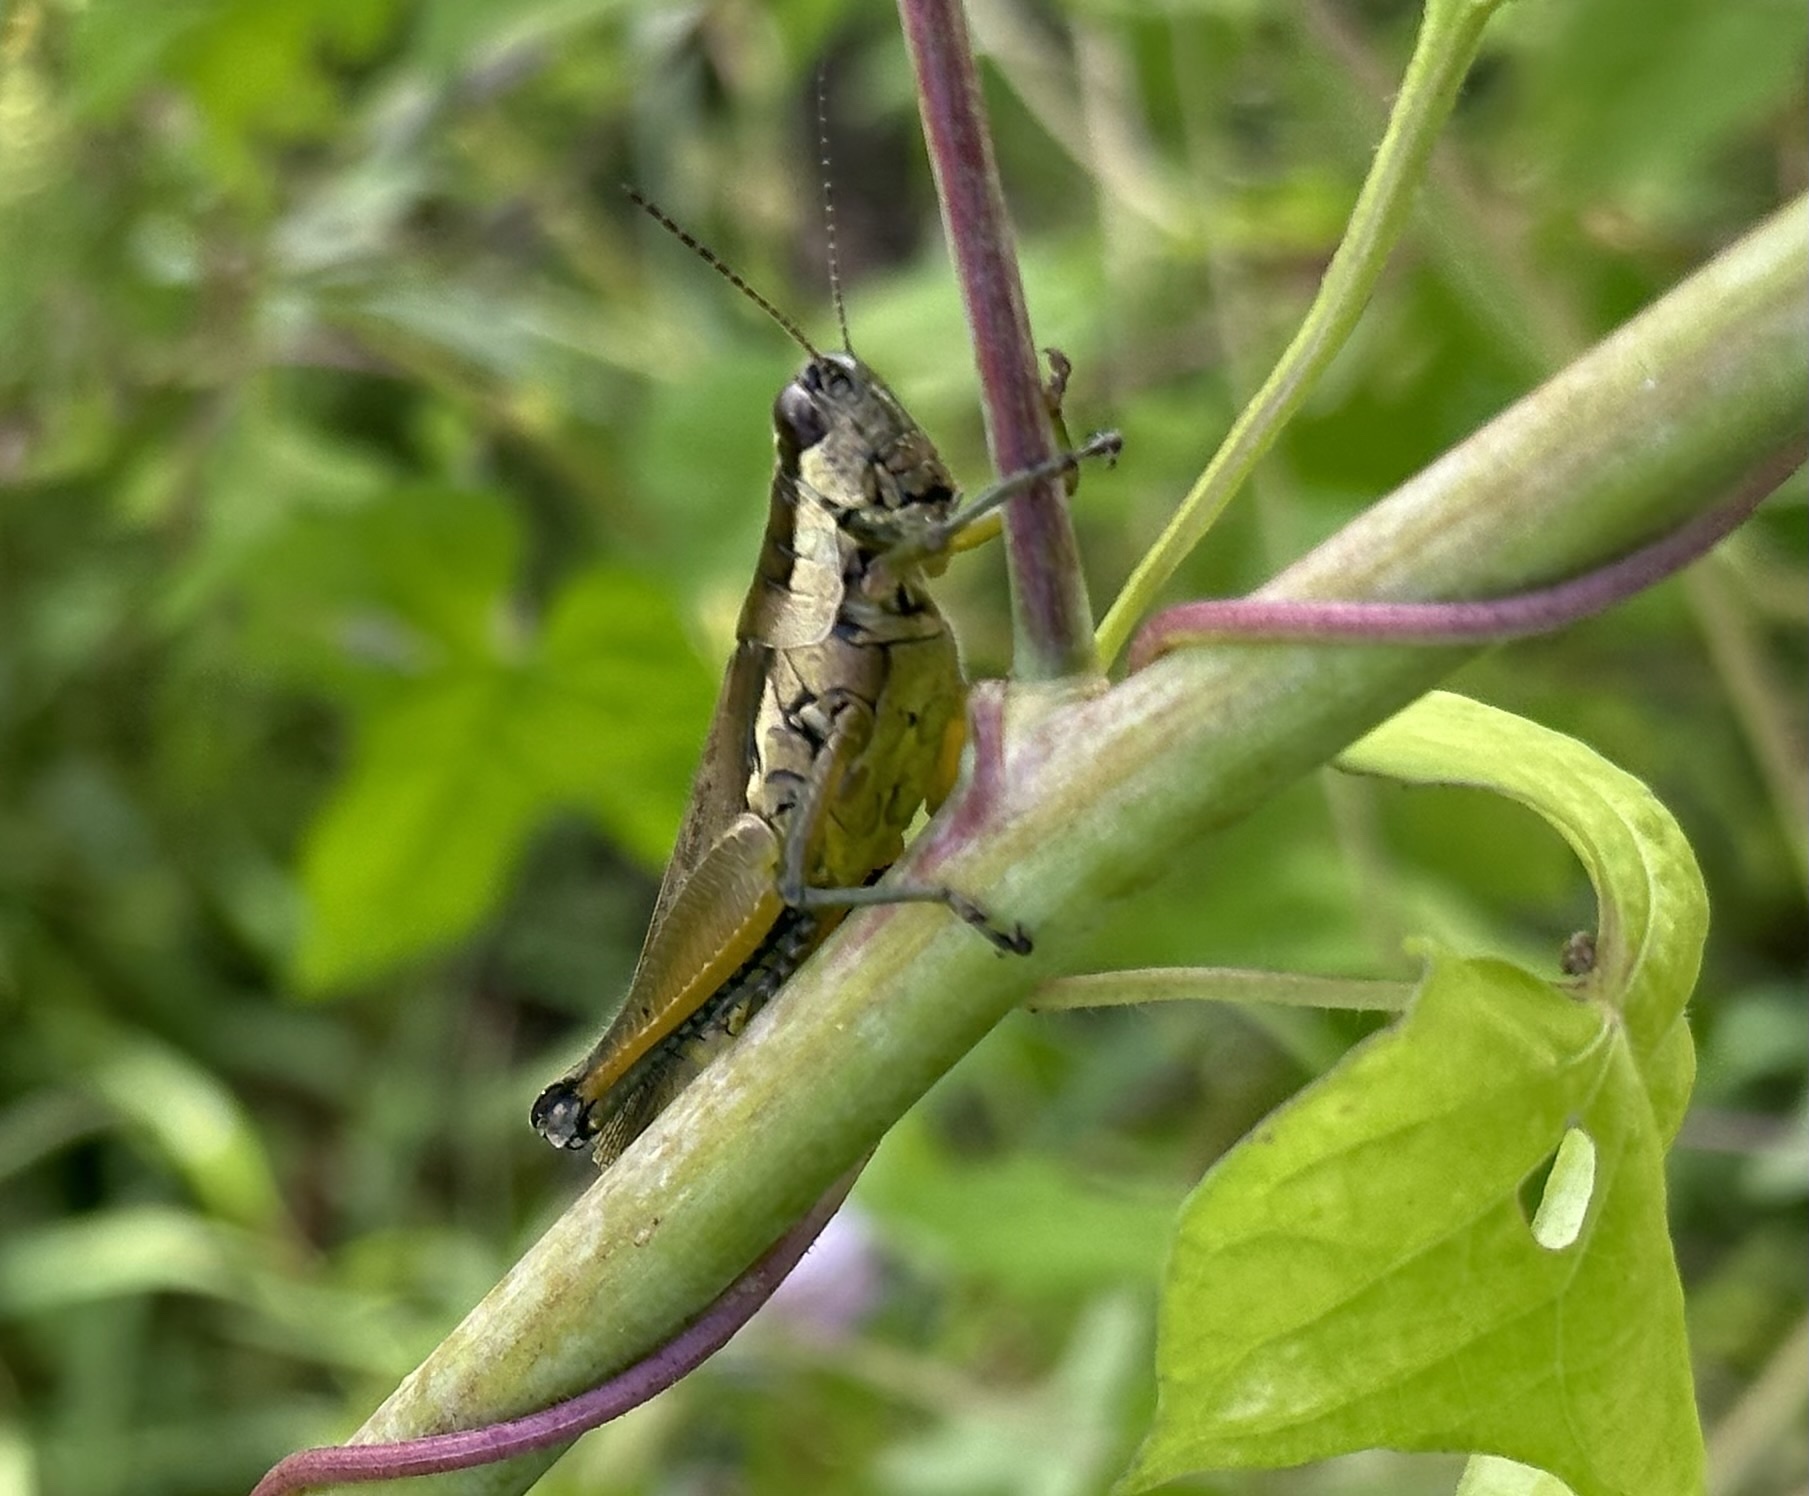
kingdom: Animalia
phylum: Arthropoda
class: Insecta
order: Orthoptera
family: Acrididae
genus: Paroxya
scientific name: Paroxya clavuligera
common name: Olive-green swamp grasshopper
